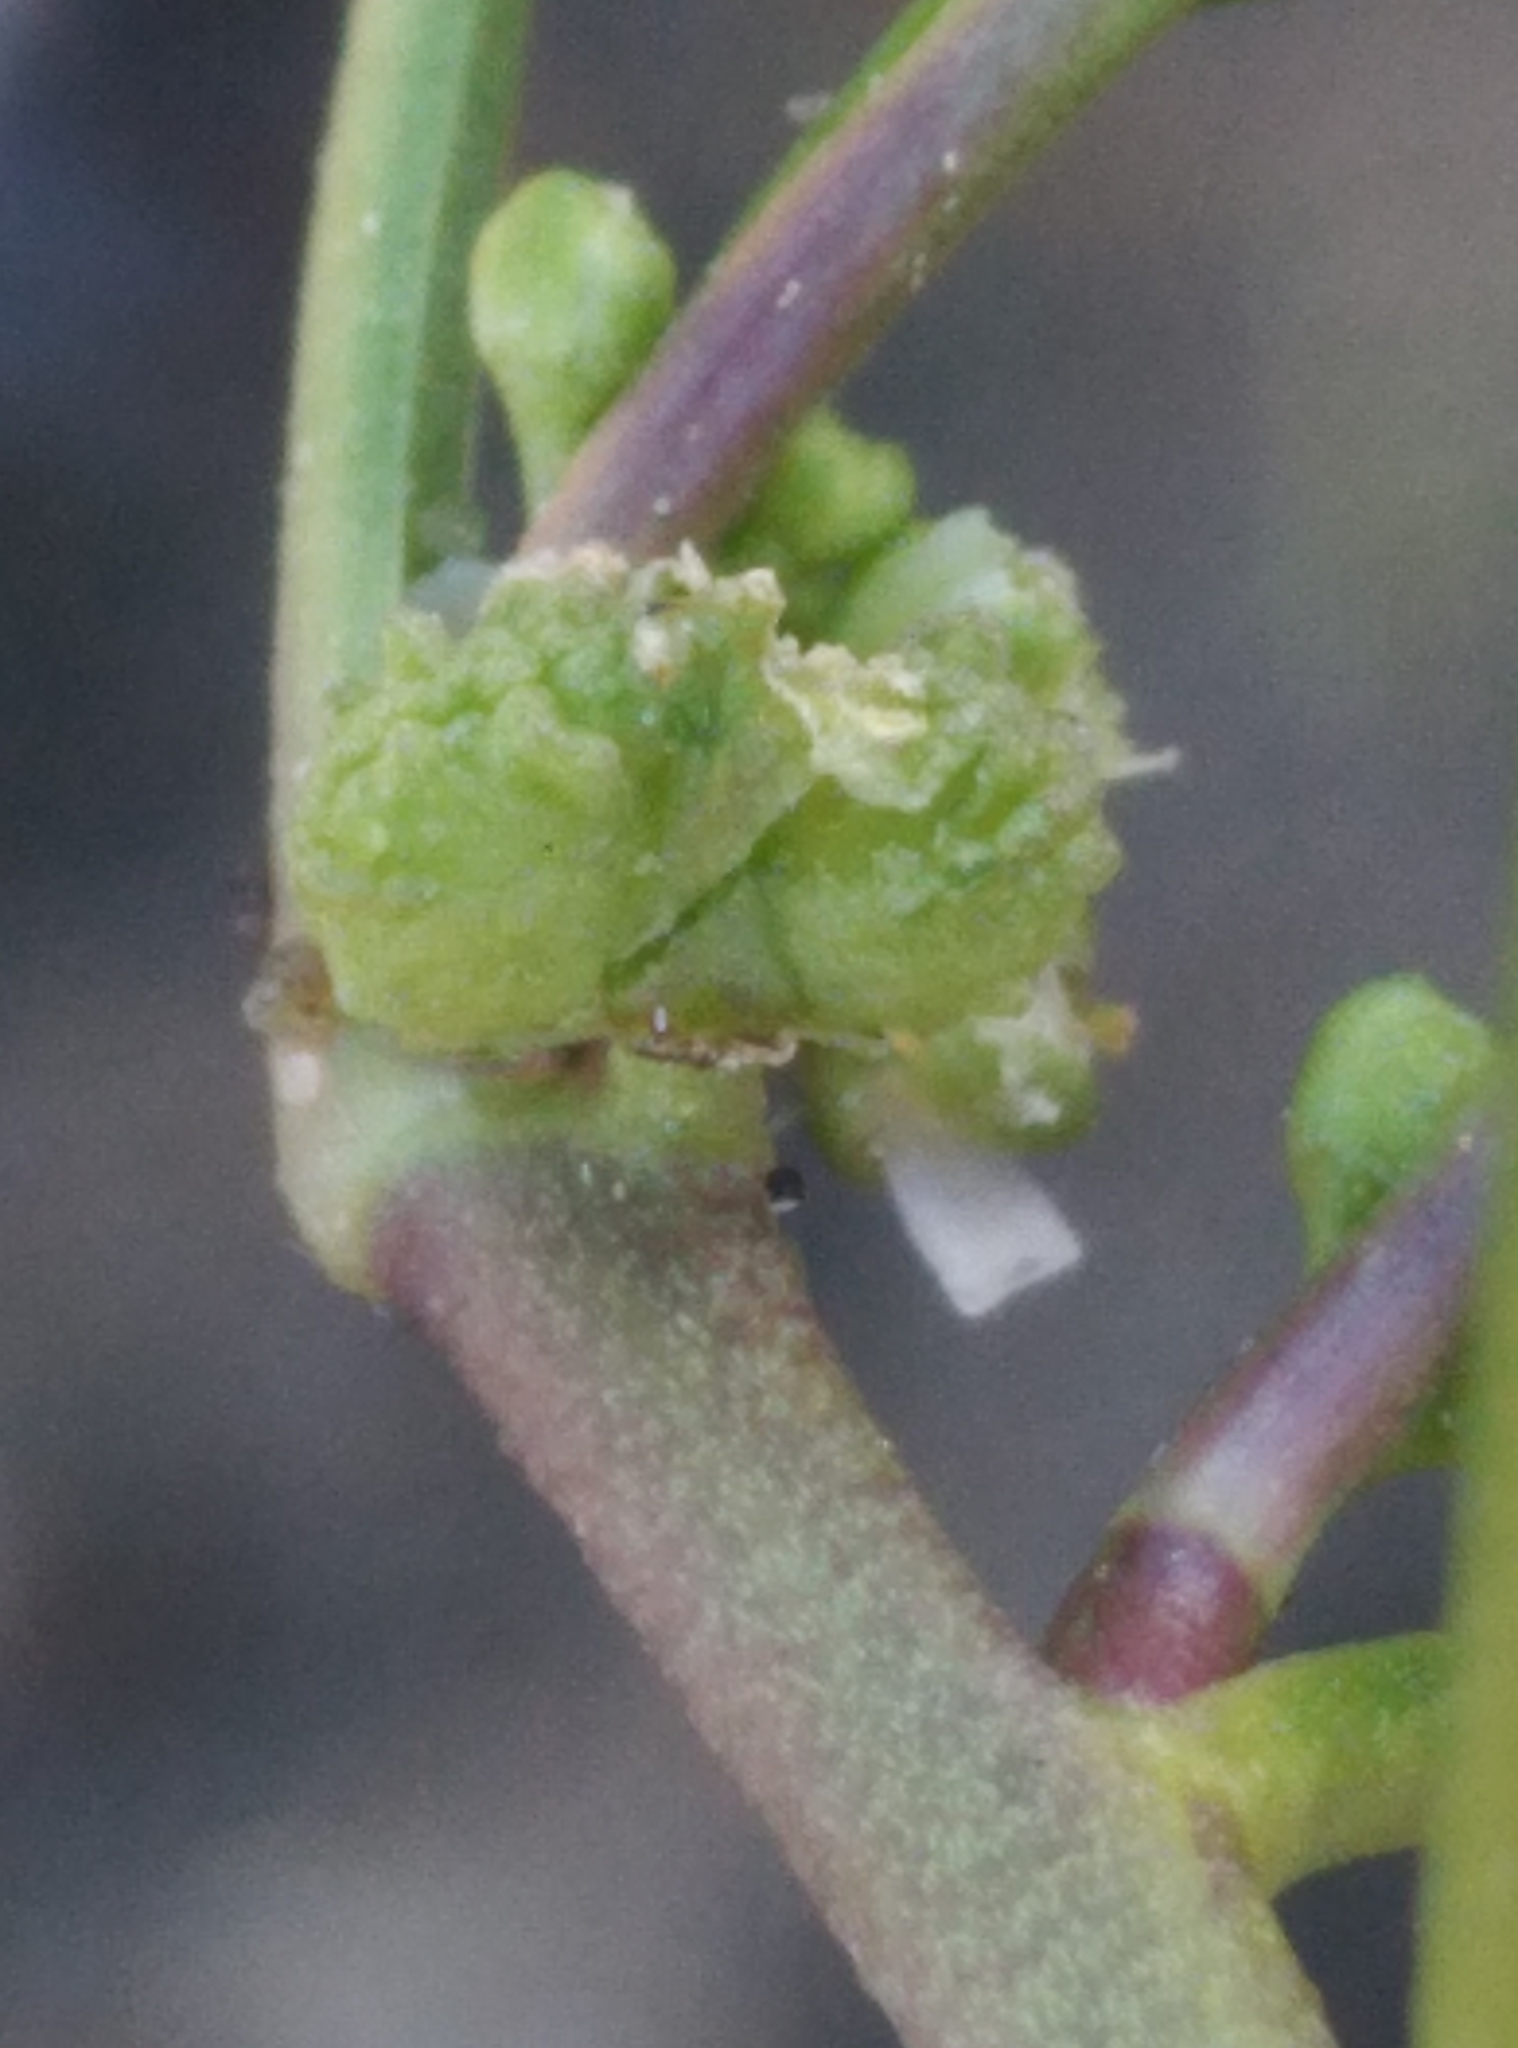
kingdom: Plantae
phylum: Tracheophyta
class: Magnoliopsida
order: Brassicales
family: Brassicaceae
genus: Lepidium
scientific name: Lepidium coronopus
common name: Greater swinecress
